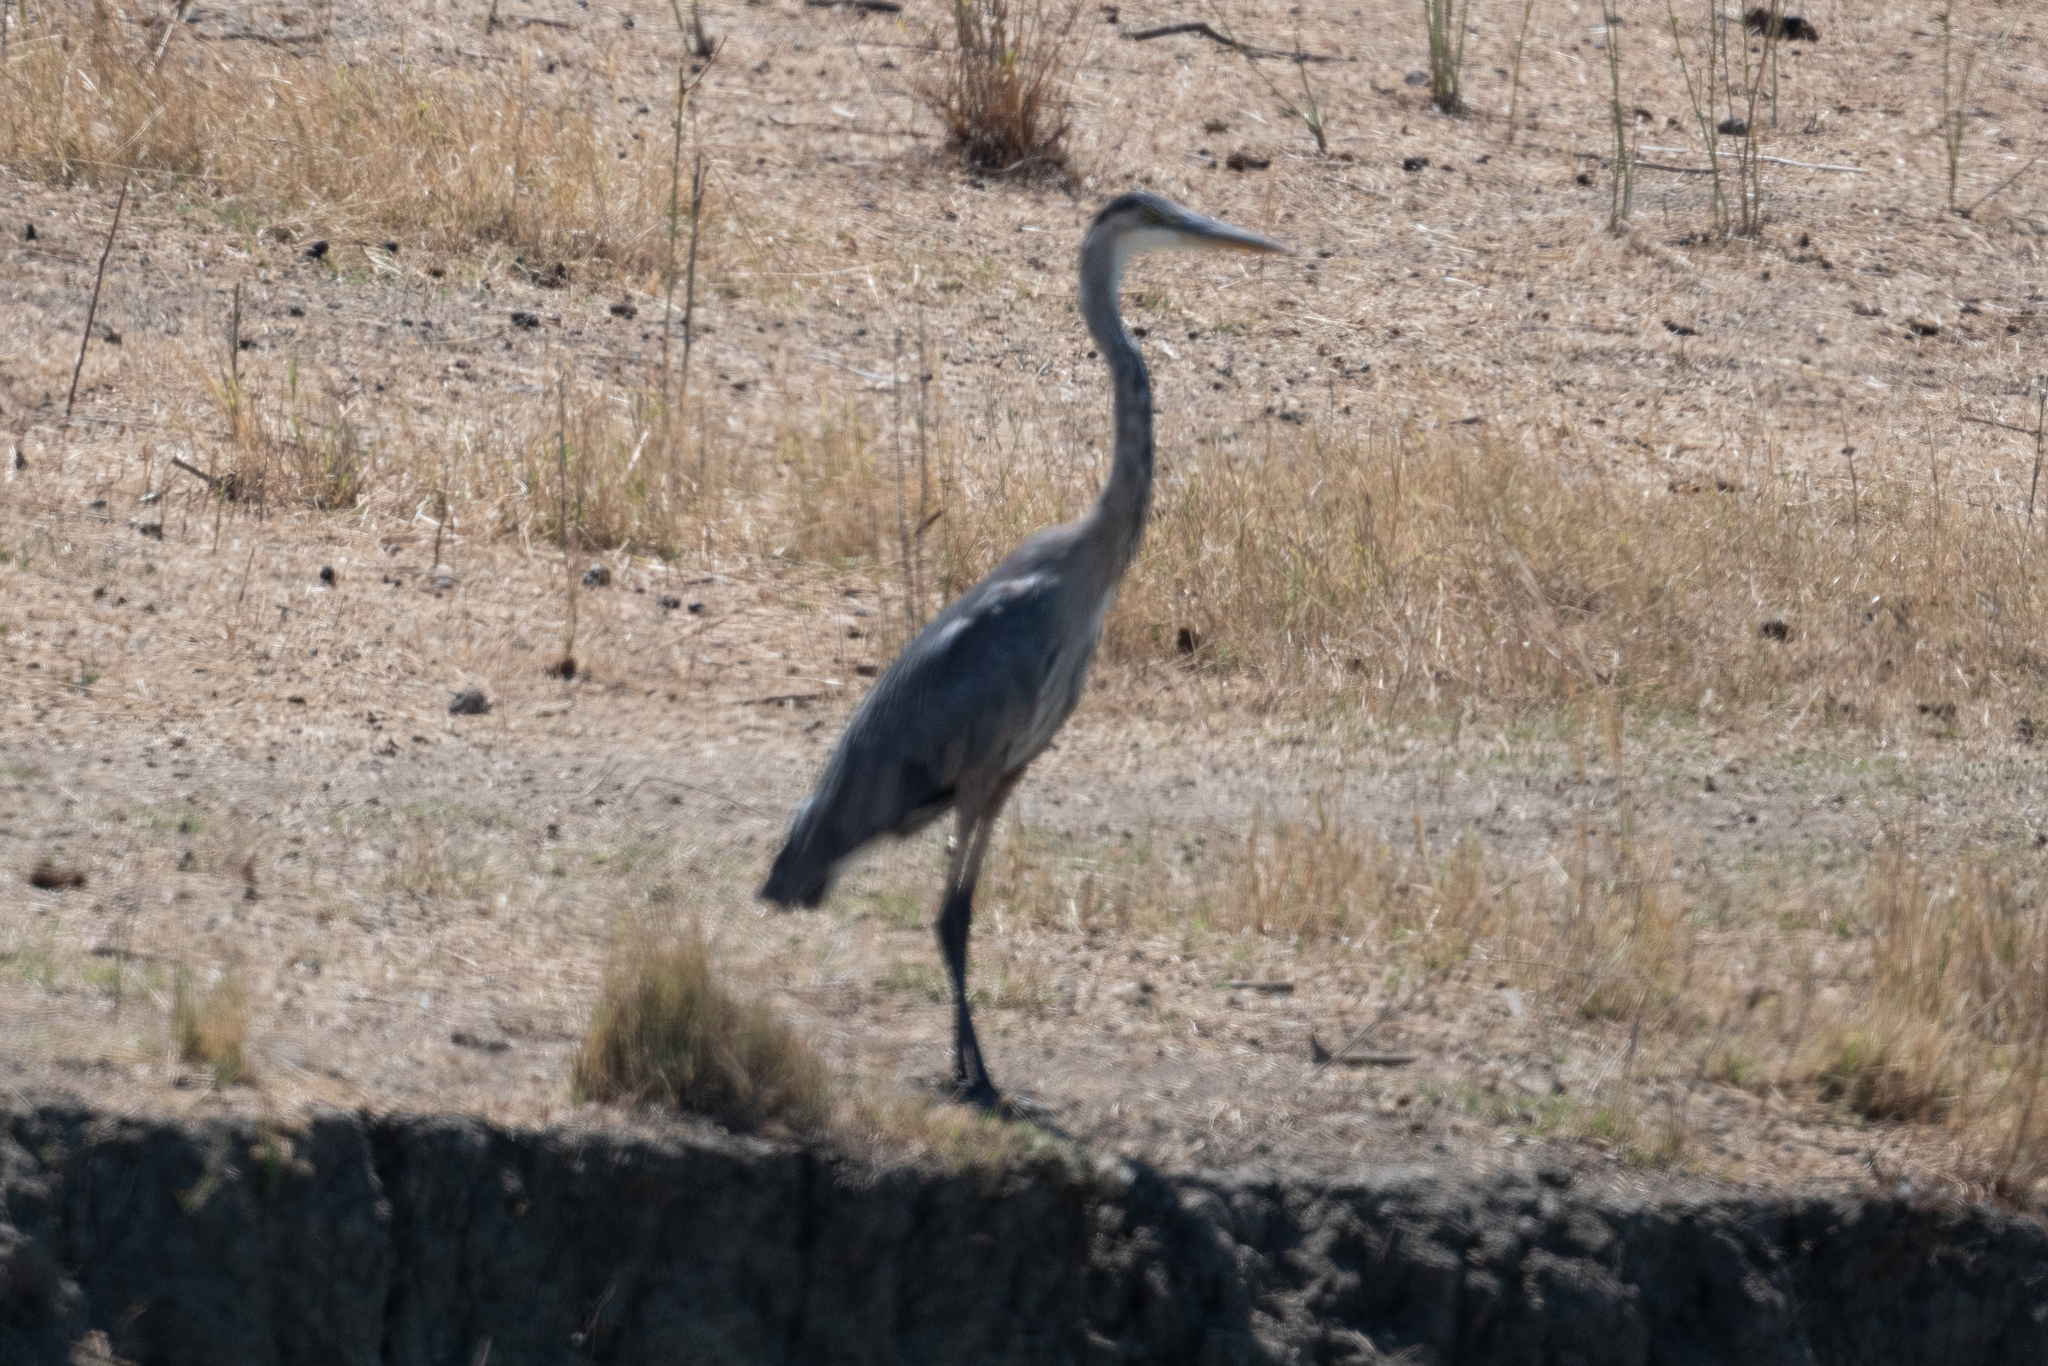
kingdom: Animalia
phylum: Chordata
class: Aves
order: Pelecaniformes
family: Ardeidae
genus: Ardea
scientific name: Ardea herodias
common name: Great blue heron
